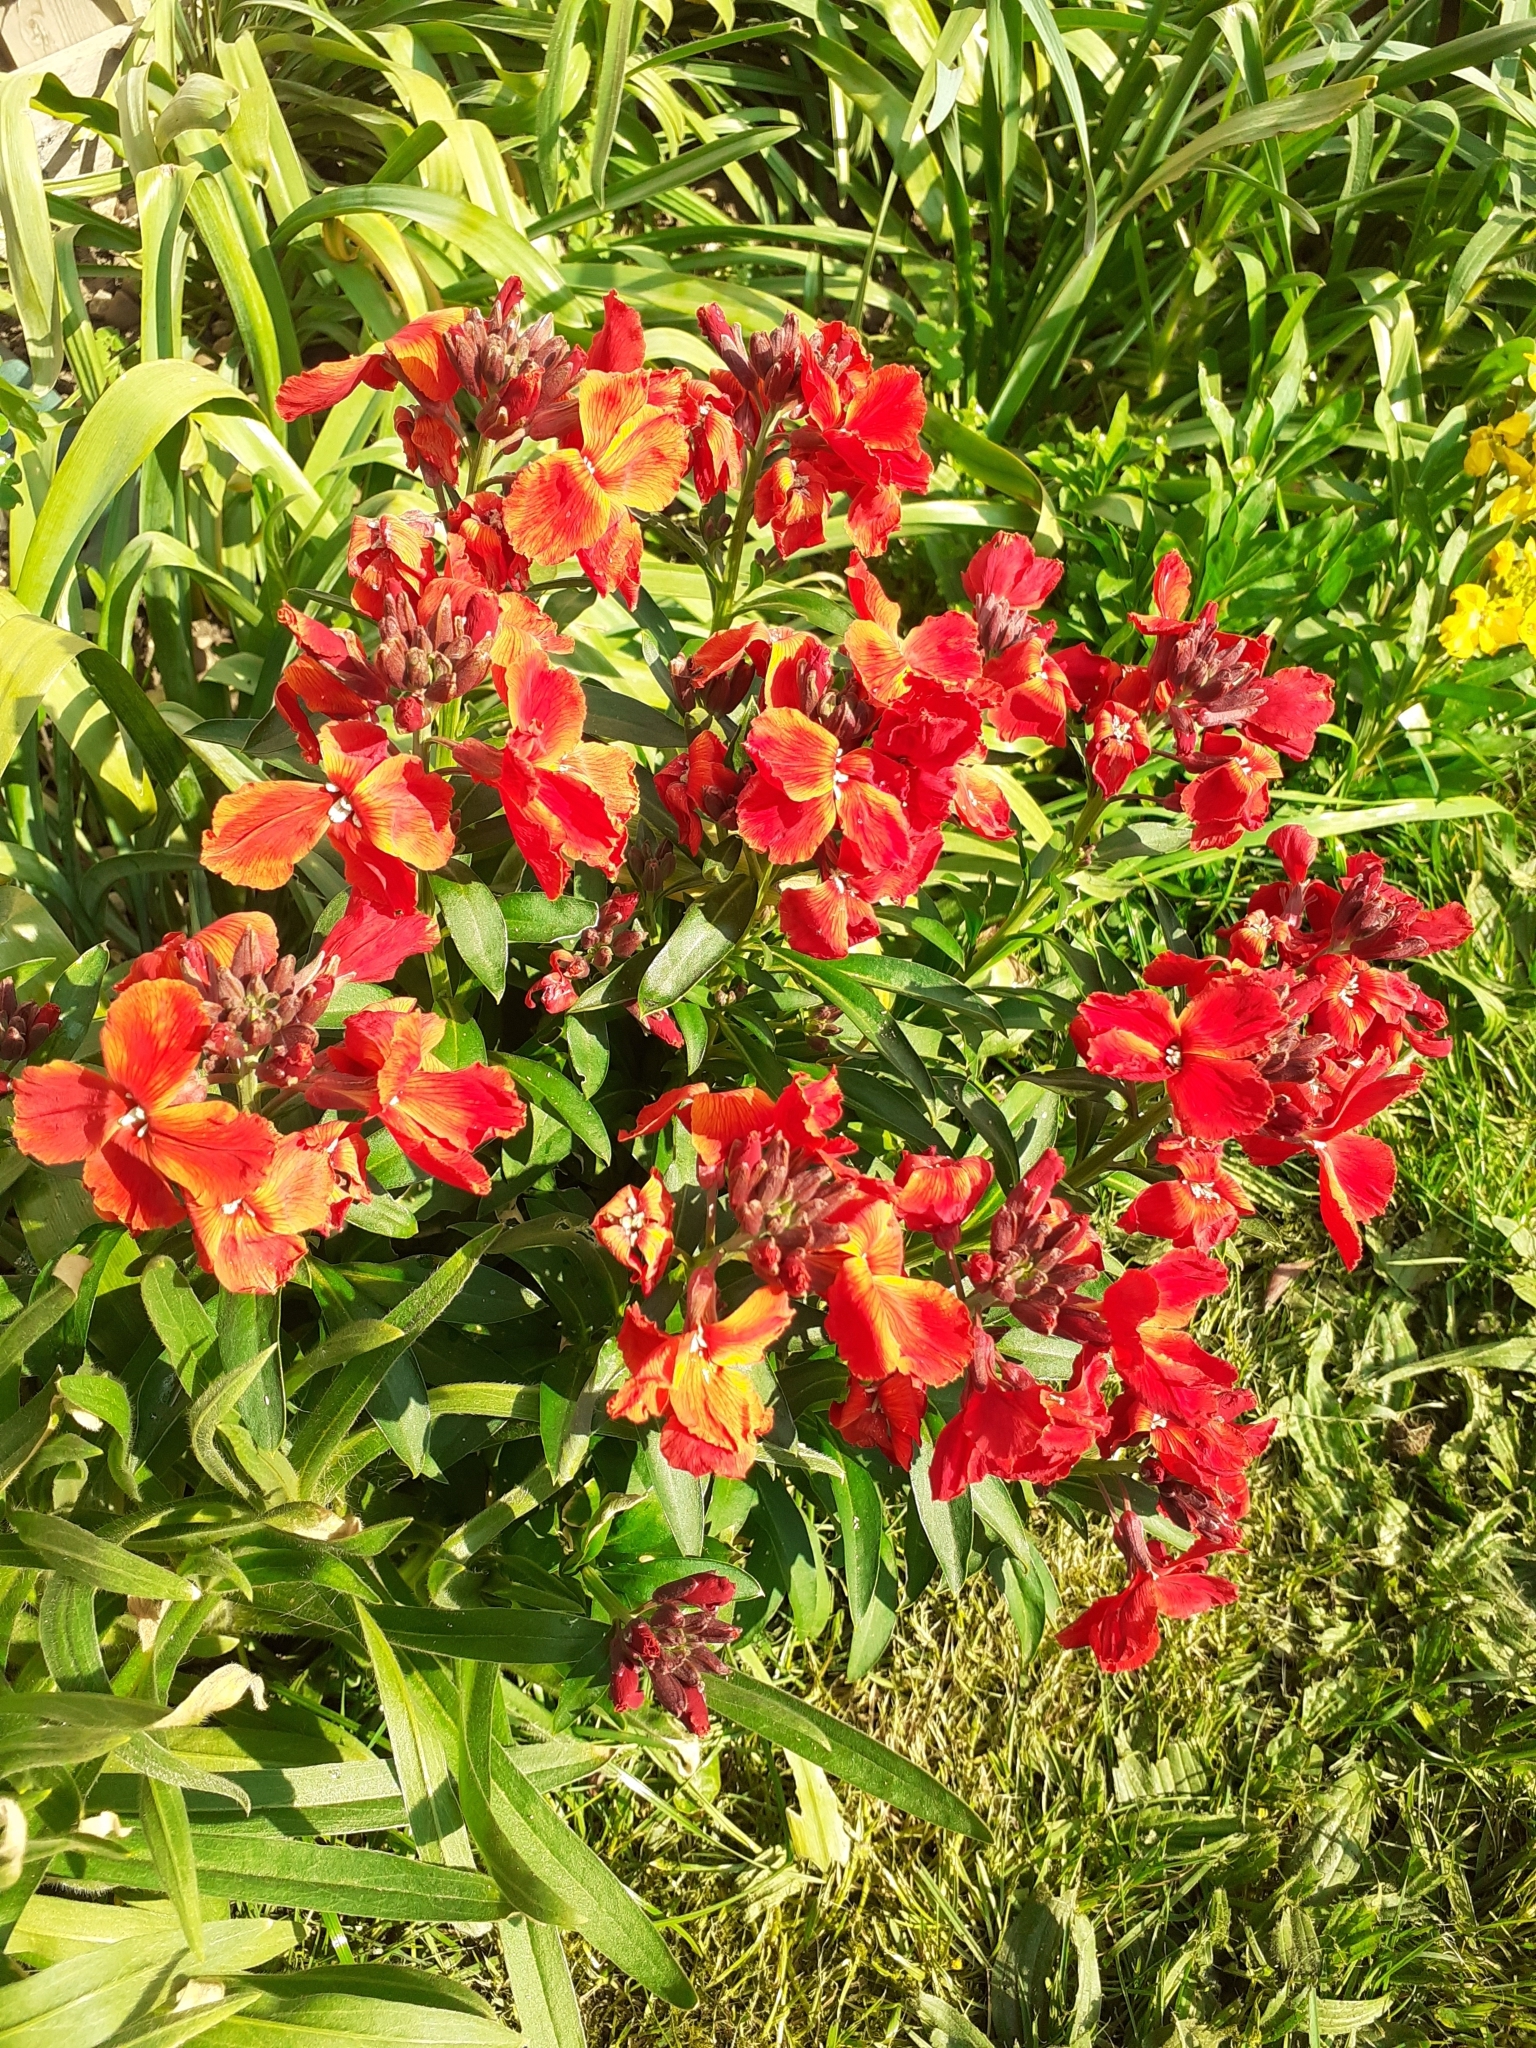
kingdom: Plantae
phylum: Tracheophyta
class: Magnoliopsida
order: Brassicales
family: Brassicaceae
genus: Erysimum
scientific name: Erysimum cheiri
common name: Wallflower
